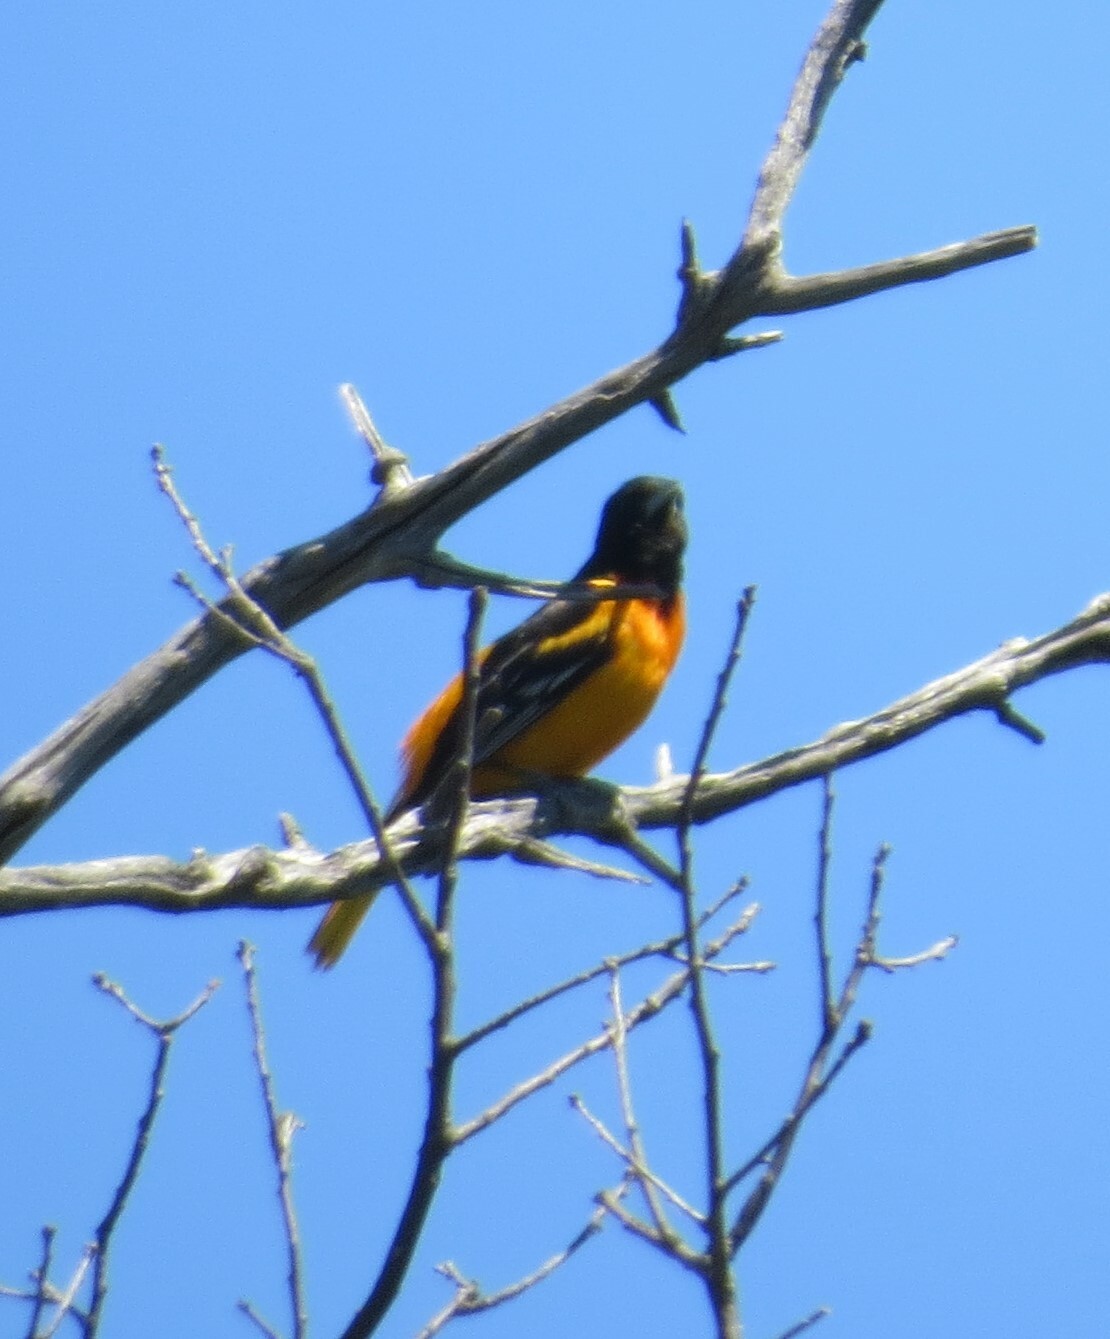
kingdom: Animalia
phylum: Chordata
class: Aves
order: Passeriformes
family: Icteridae
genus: Icterus
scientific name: Icterus galbula
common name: Baltimore oriole
